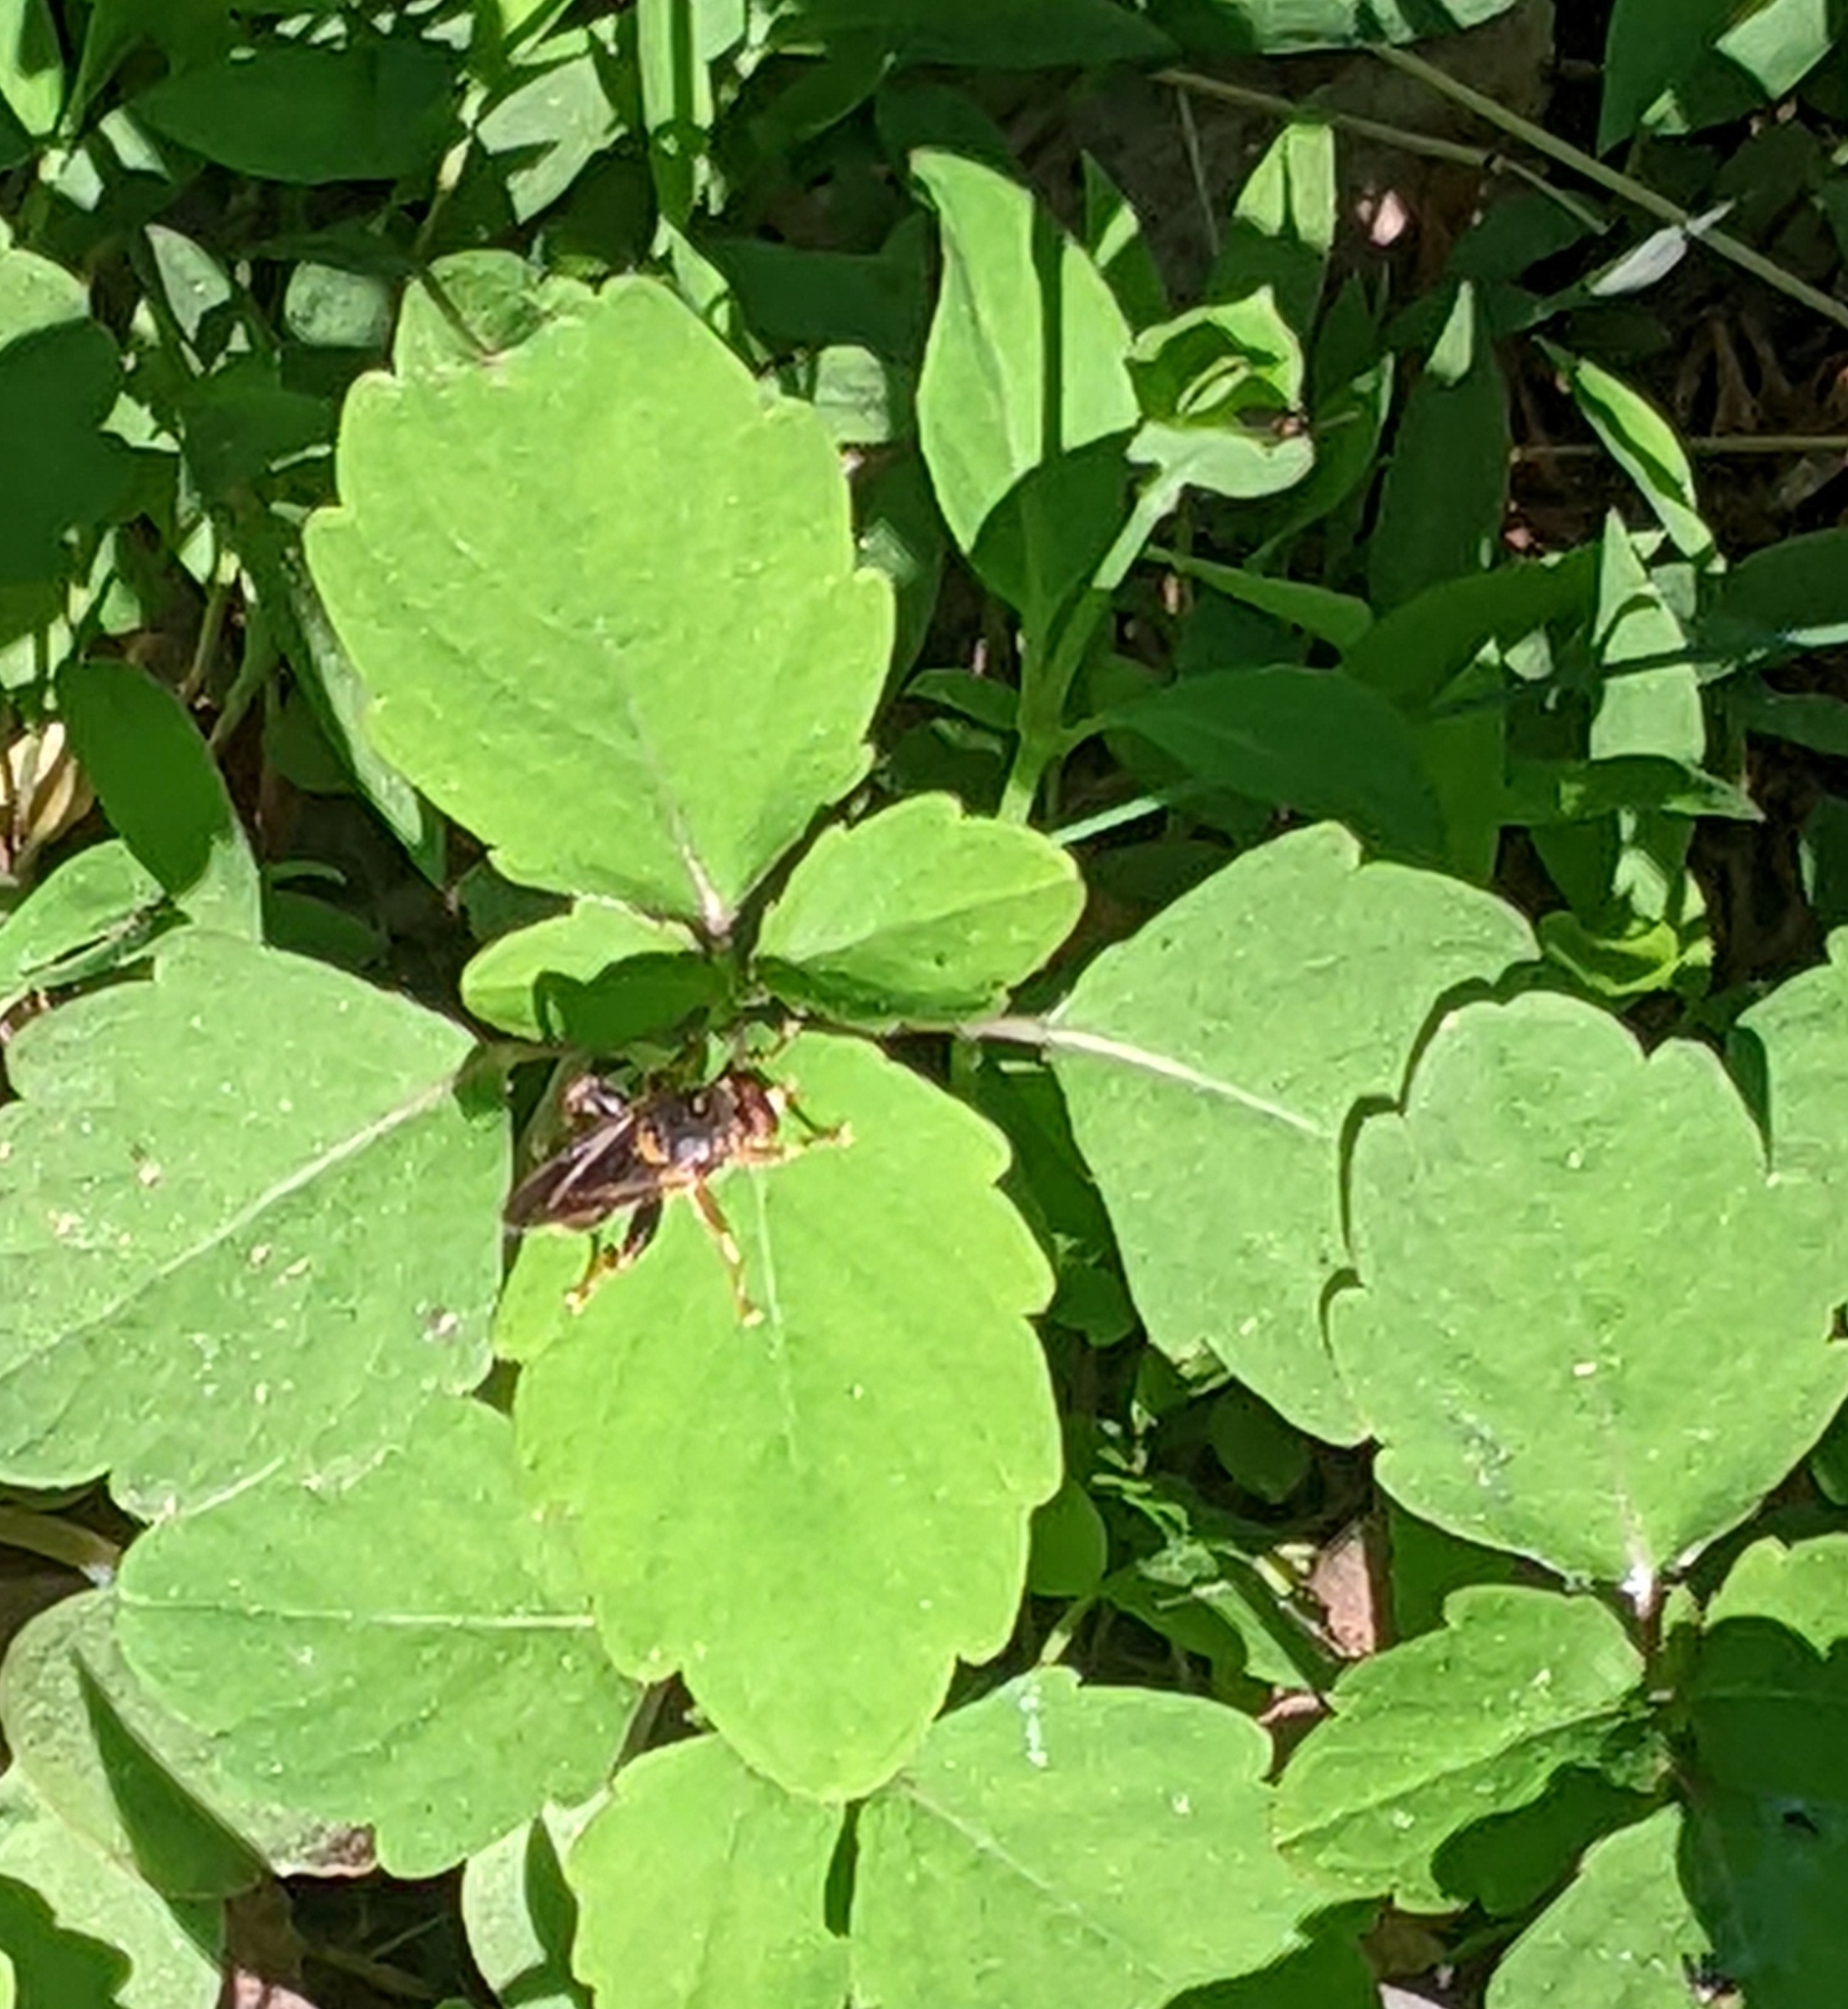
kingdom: Animalia
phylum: Arthropoda
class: Insecta
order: Diptera
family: Syrphidae
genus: Teuchocnemis
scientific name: Teuchocnemis bacuntius
